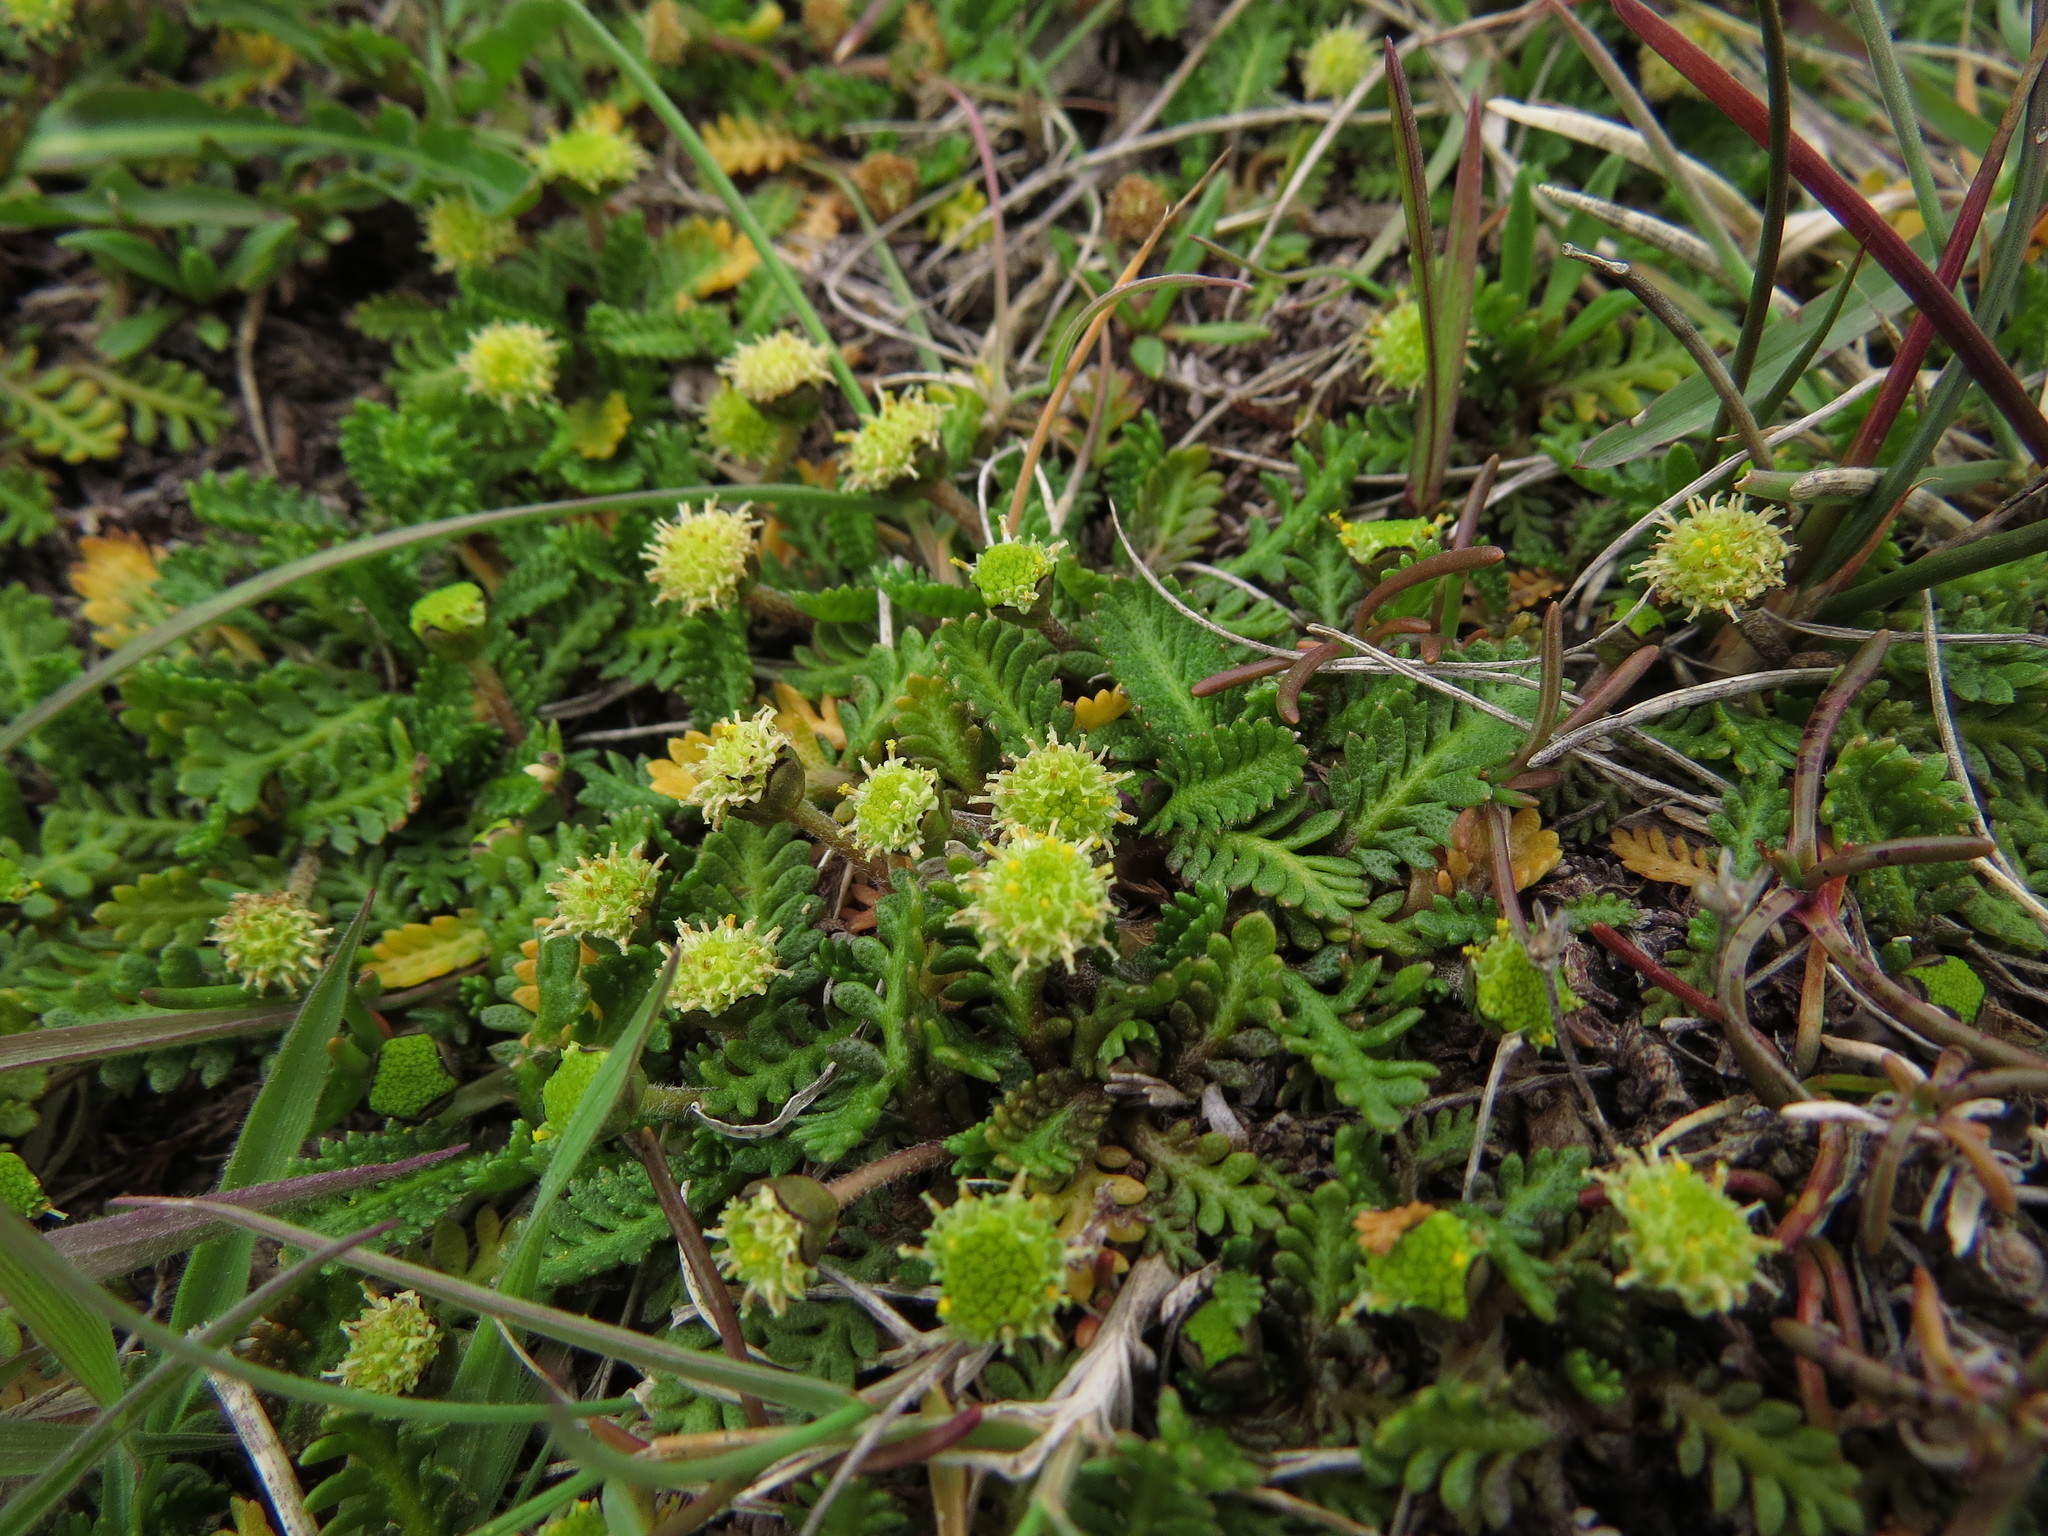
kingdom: Plantae
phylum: Tracheophyta
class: Magnoliopsida
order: Asterales
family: Asteraceae
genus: Leptinella
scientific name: Leptinella scariosa
